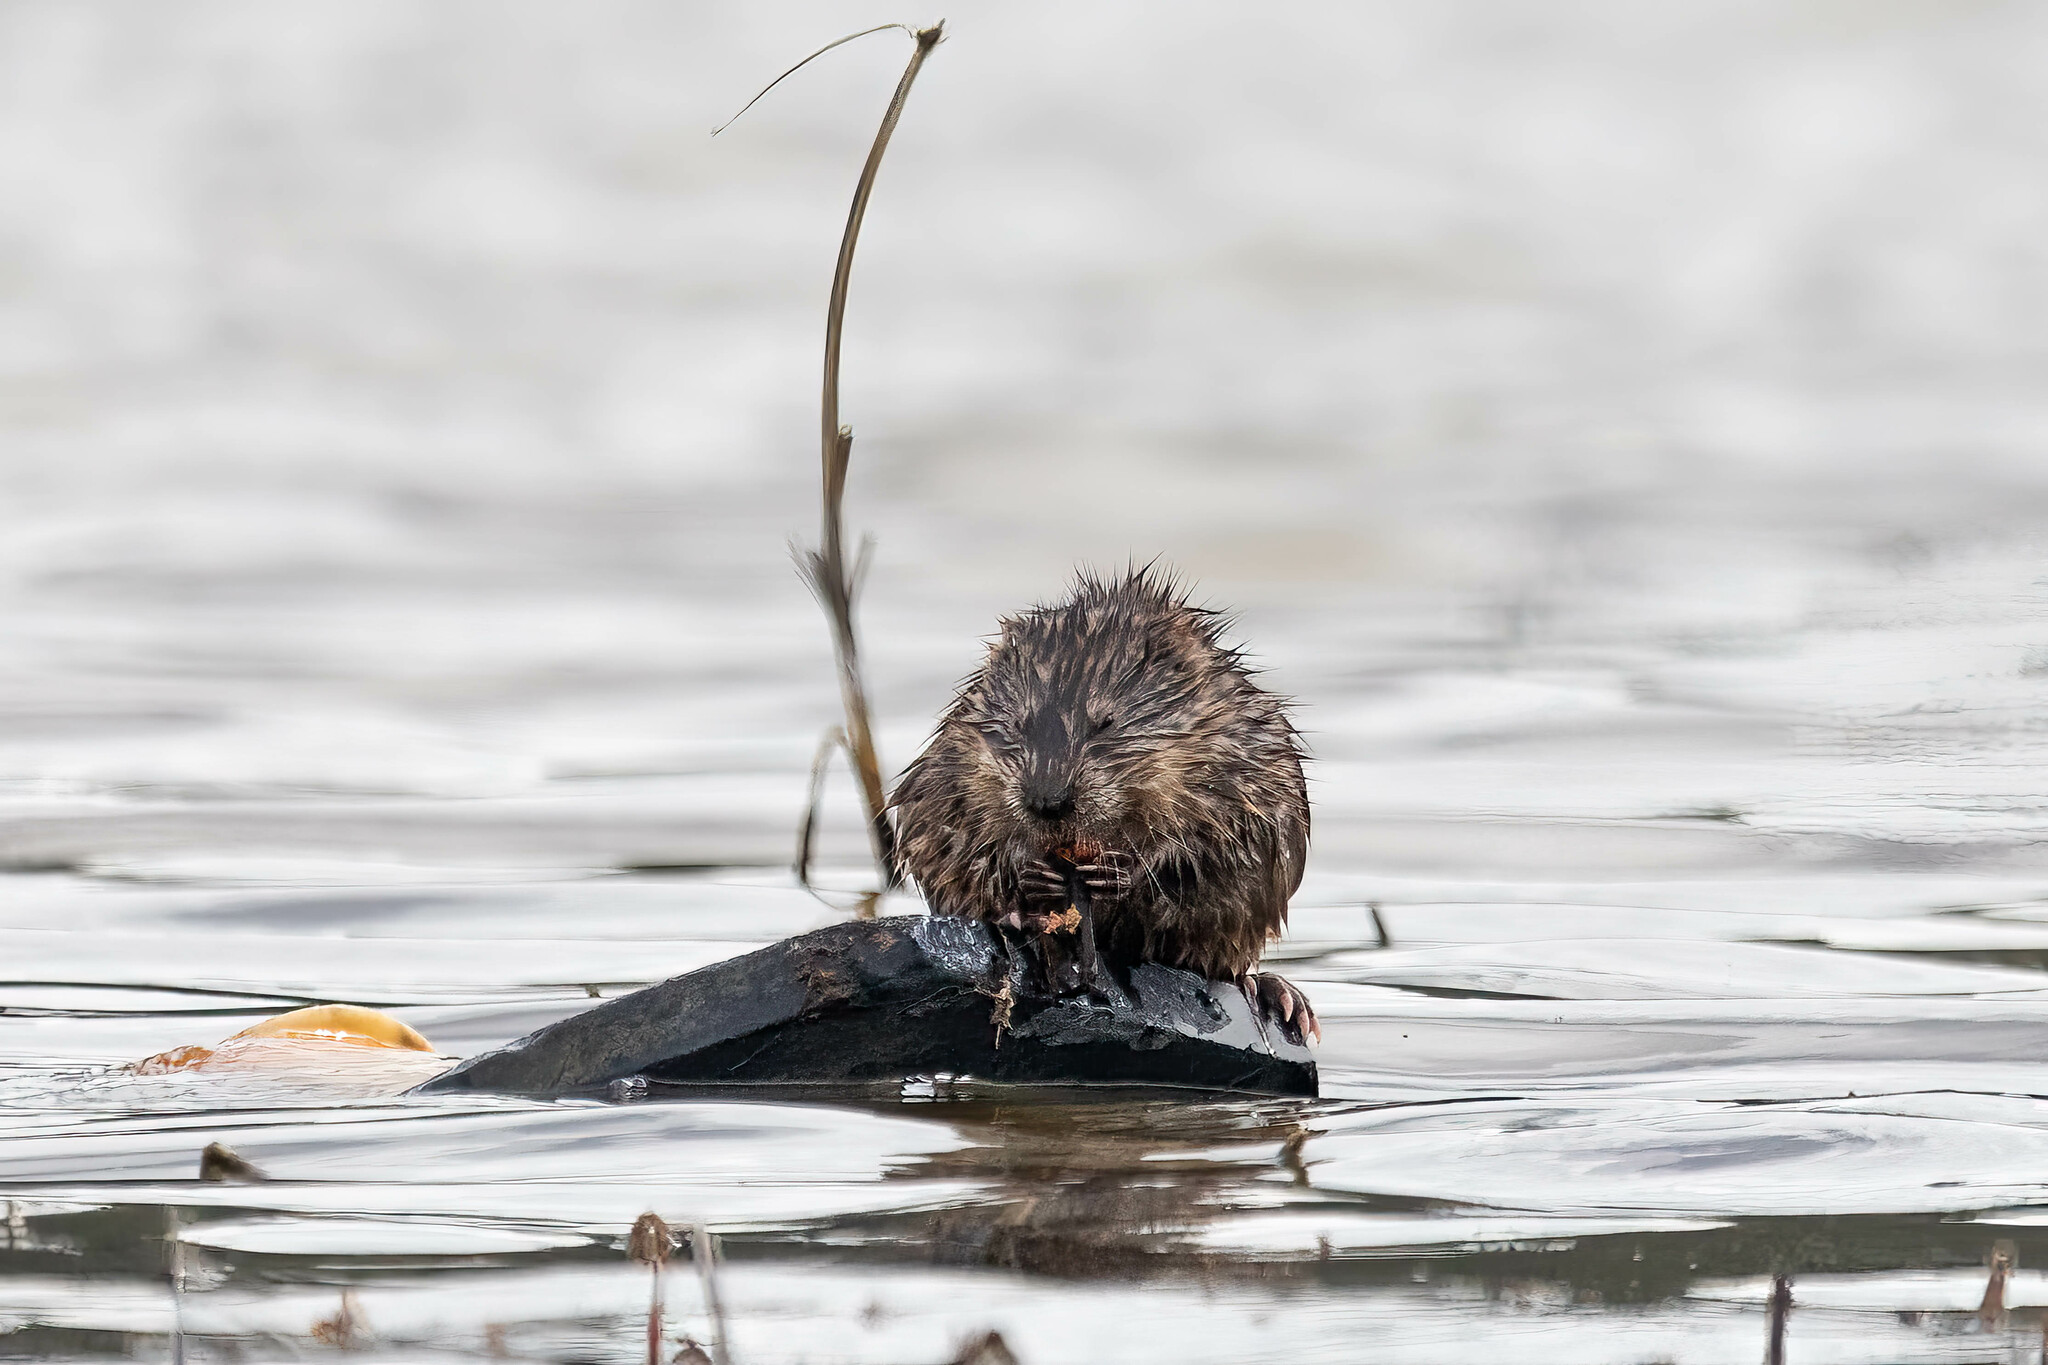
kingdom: Animalia
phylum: Chordata
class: Mammalia
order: Rodentia
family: Cricetidae
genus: Ondatra
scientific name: Ondatra zibethicus
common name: Muskrat
